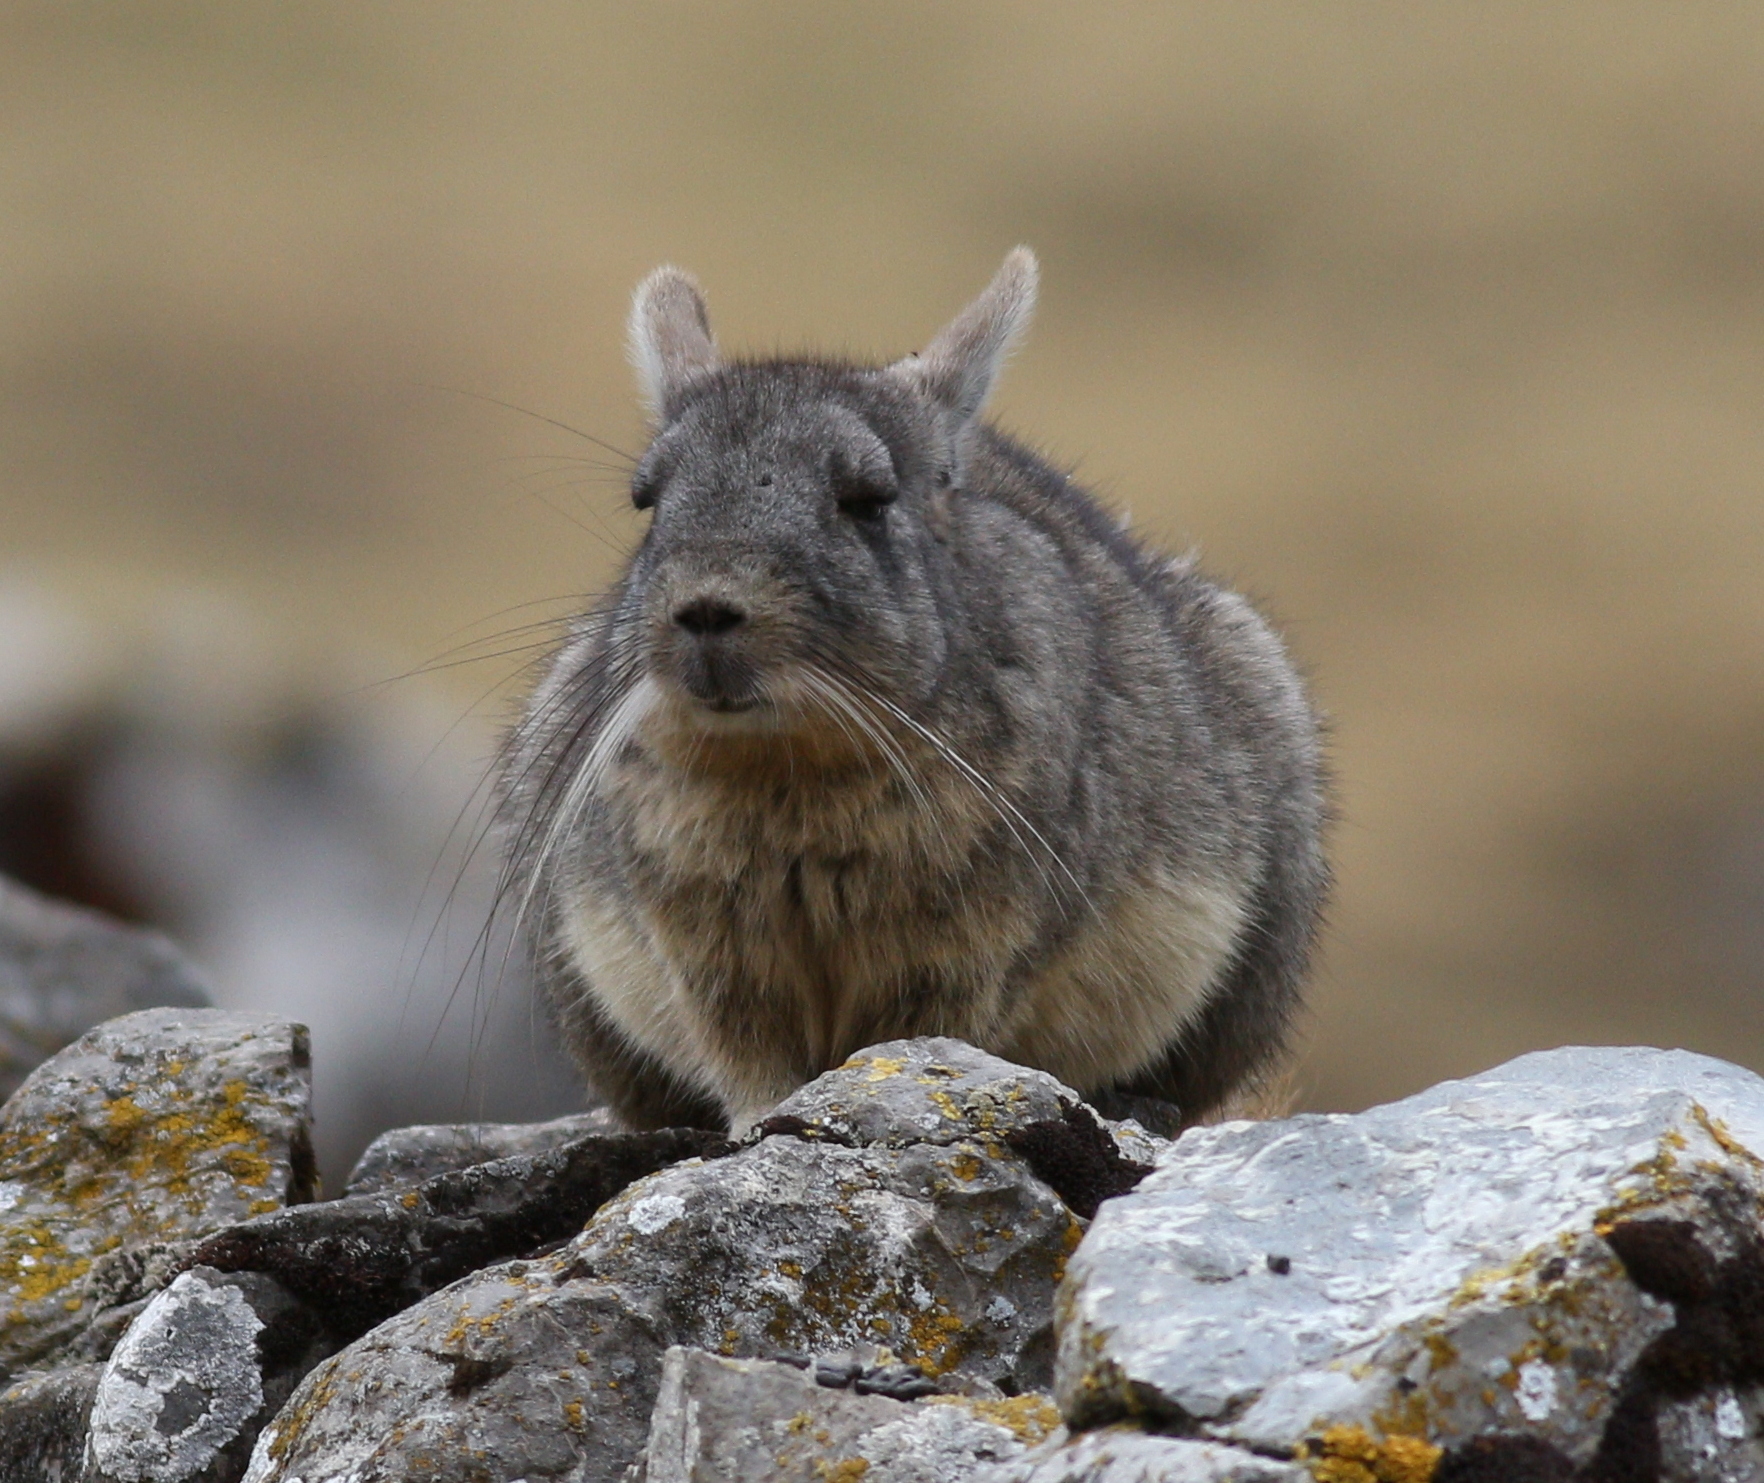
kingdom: Animalia
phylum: Chordata
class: Mammalia
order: Rodentia
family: Chinchillidae
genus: Lagidium
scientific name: Lagidium viscacia
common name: Southern viscacha
